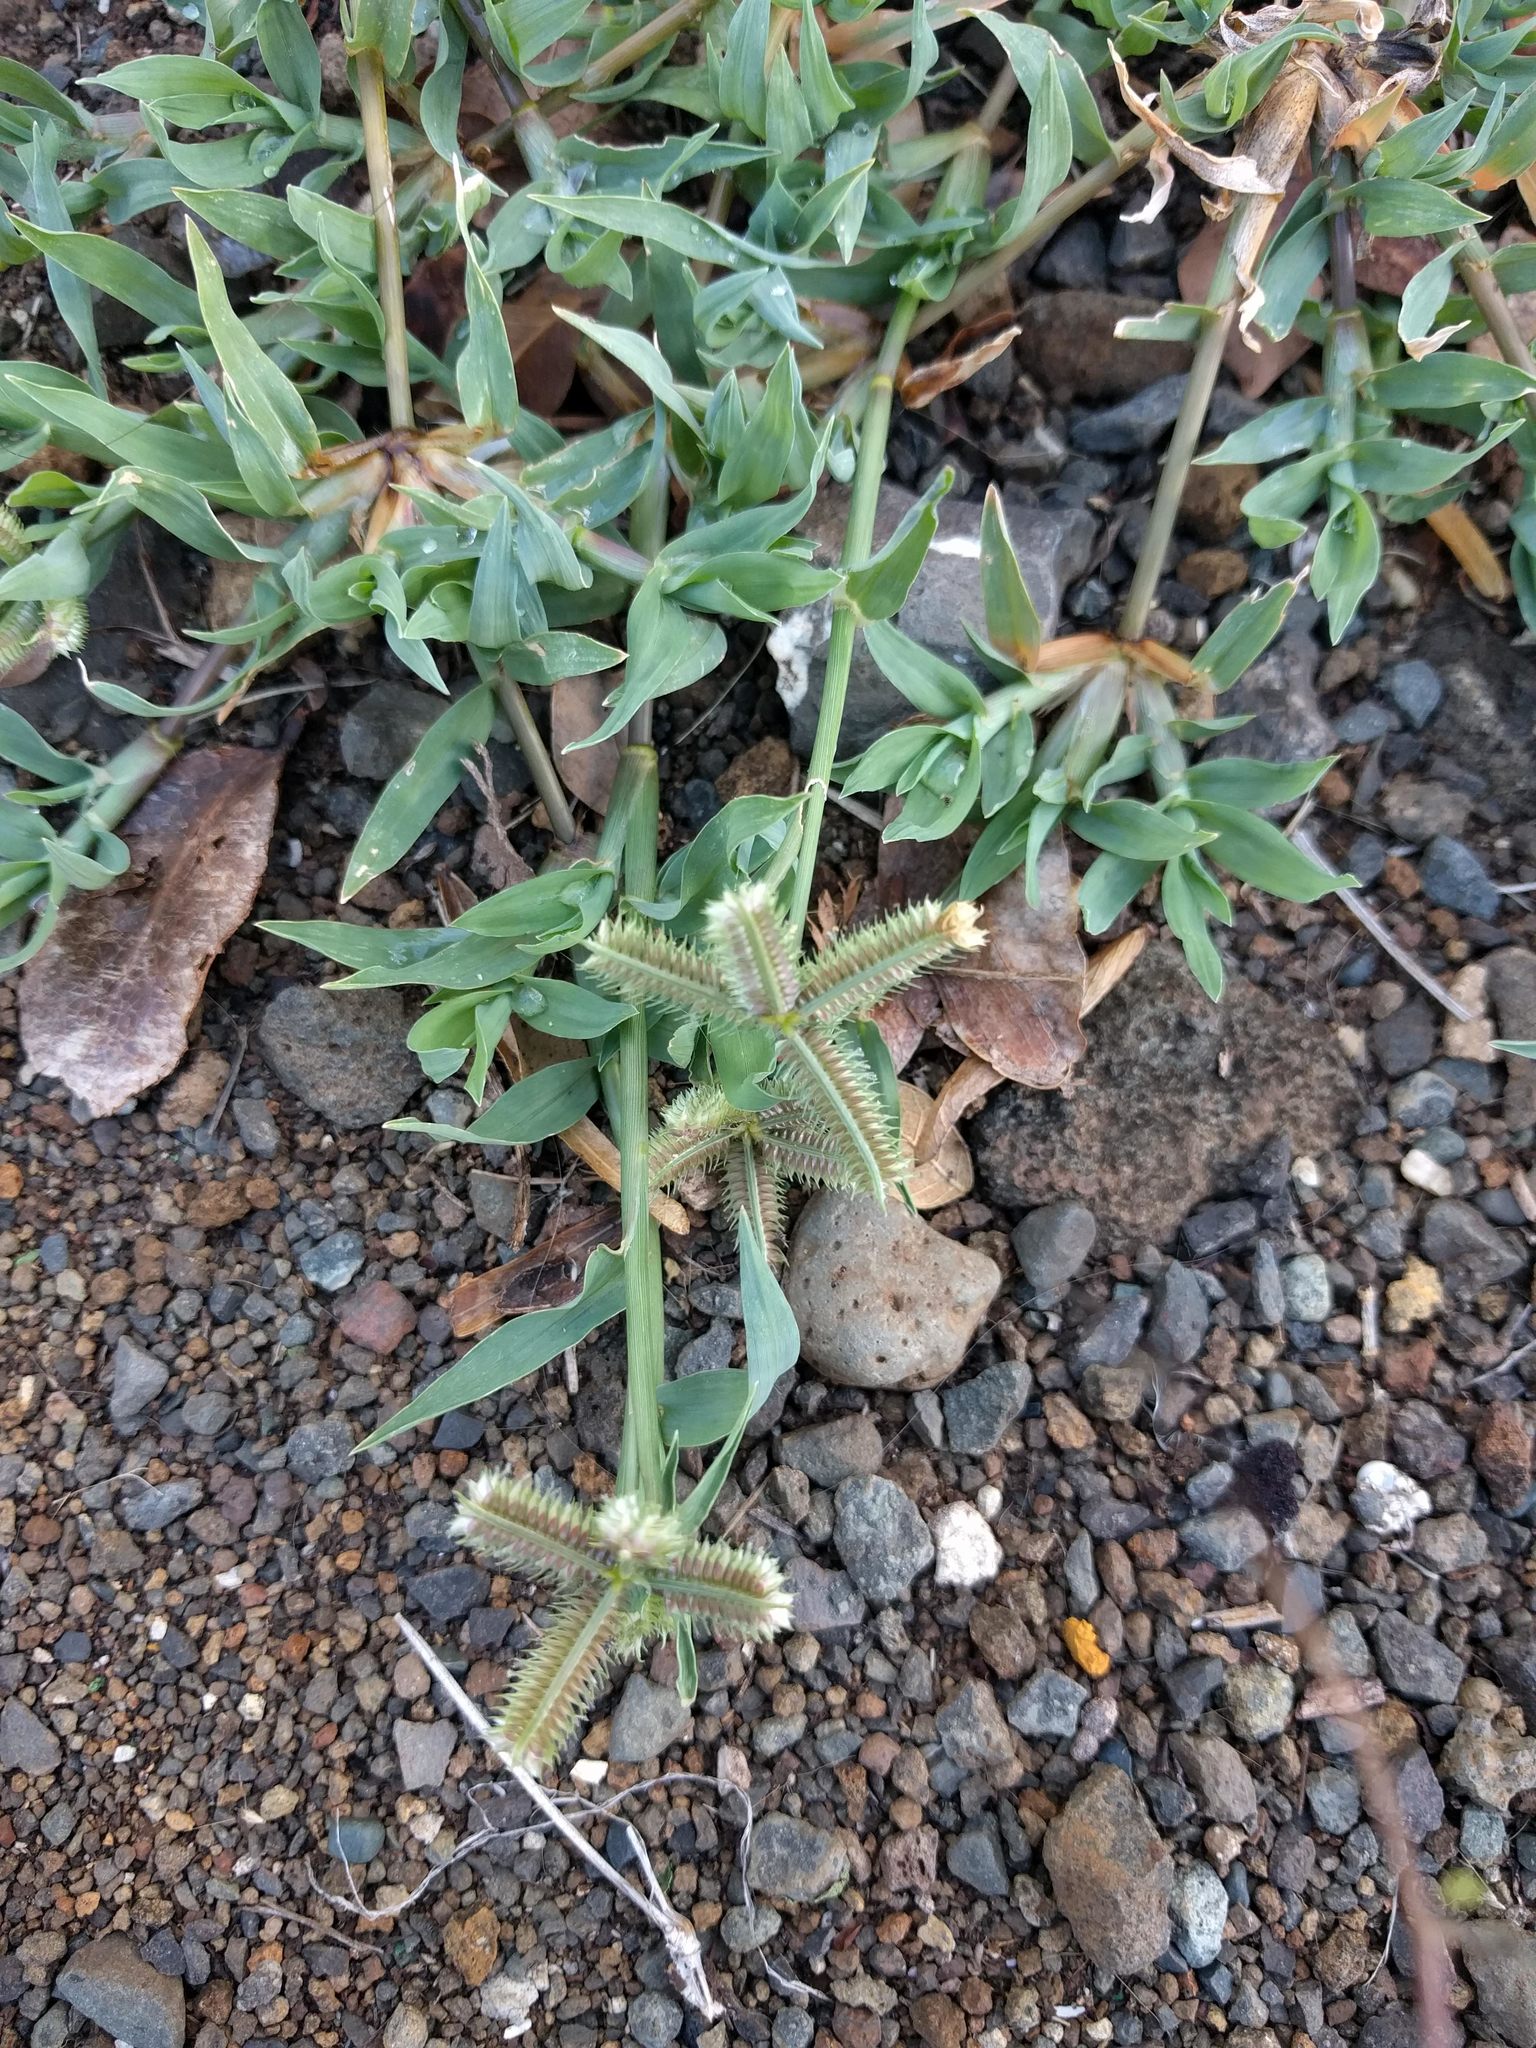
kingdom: Plantae
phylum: Tracheophyta
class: Liliopsida
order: Poales
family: Poaceae
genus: Dactyloctenium
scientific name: Dactyloctenium aegyptium
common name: Egyptian grass
